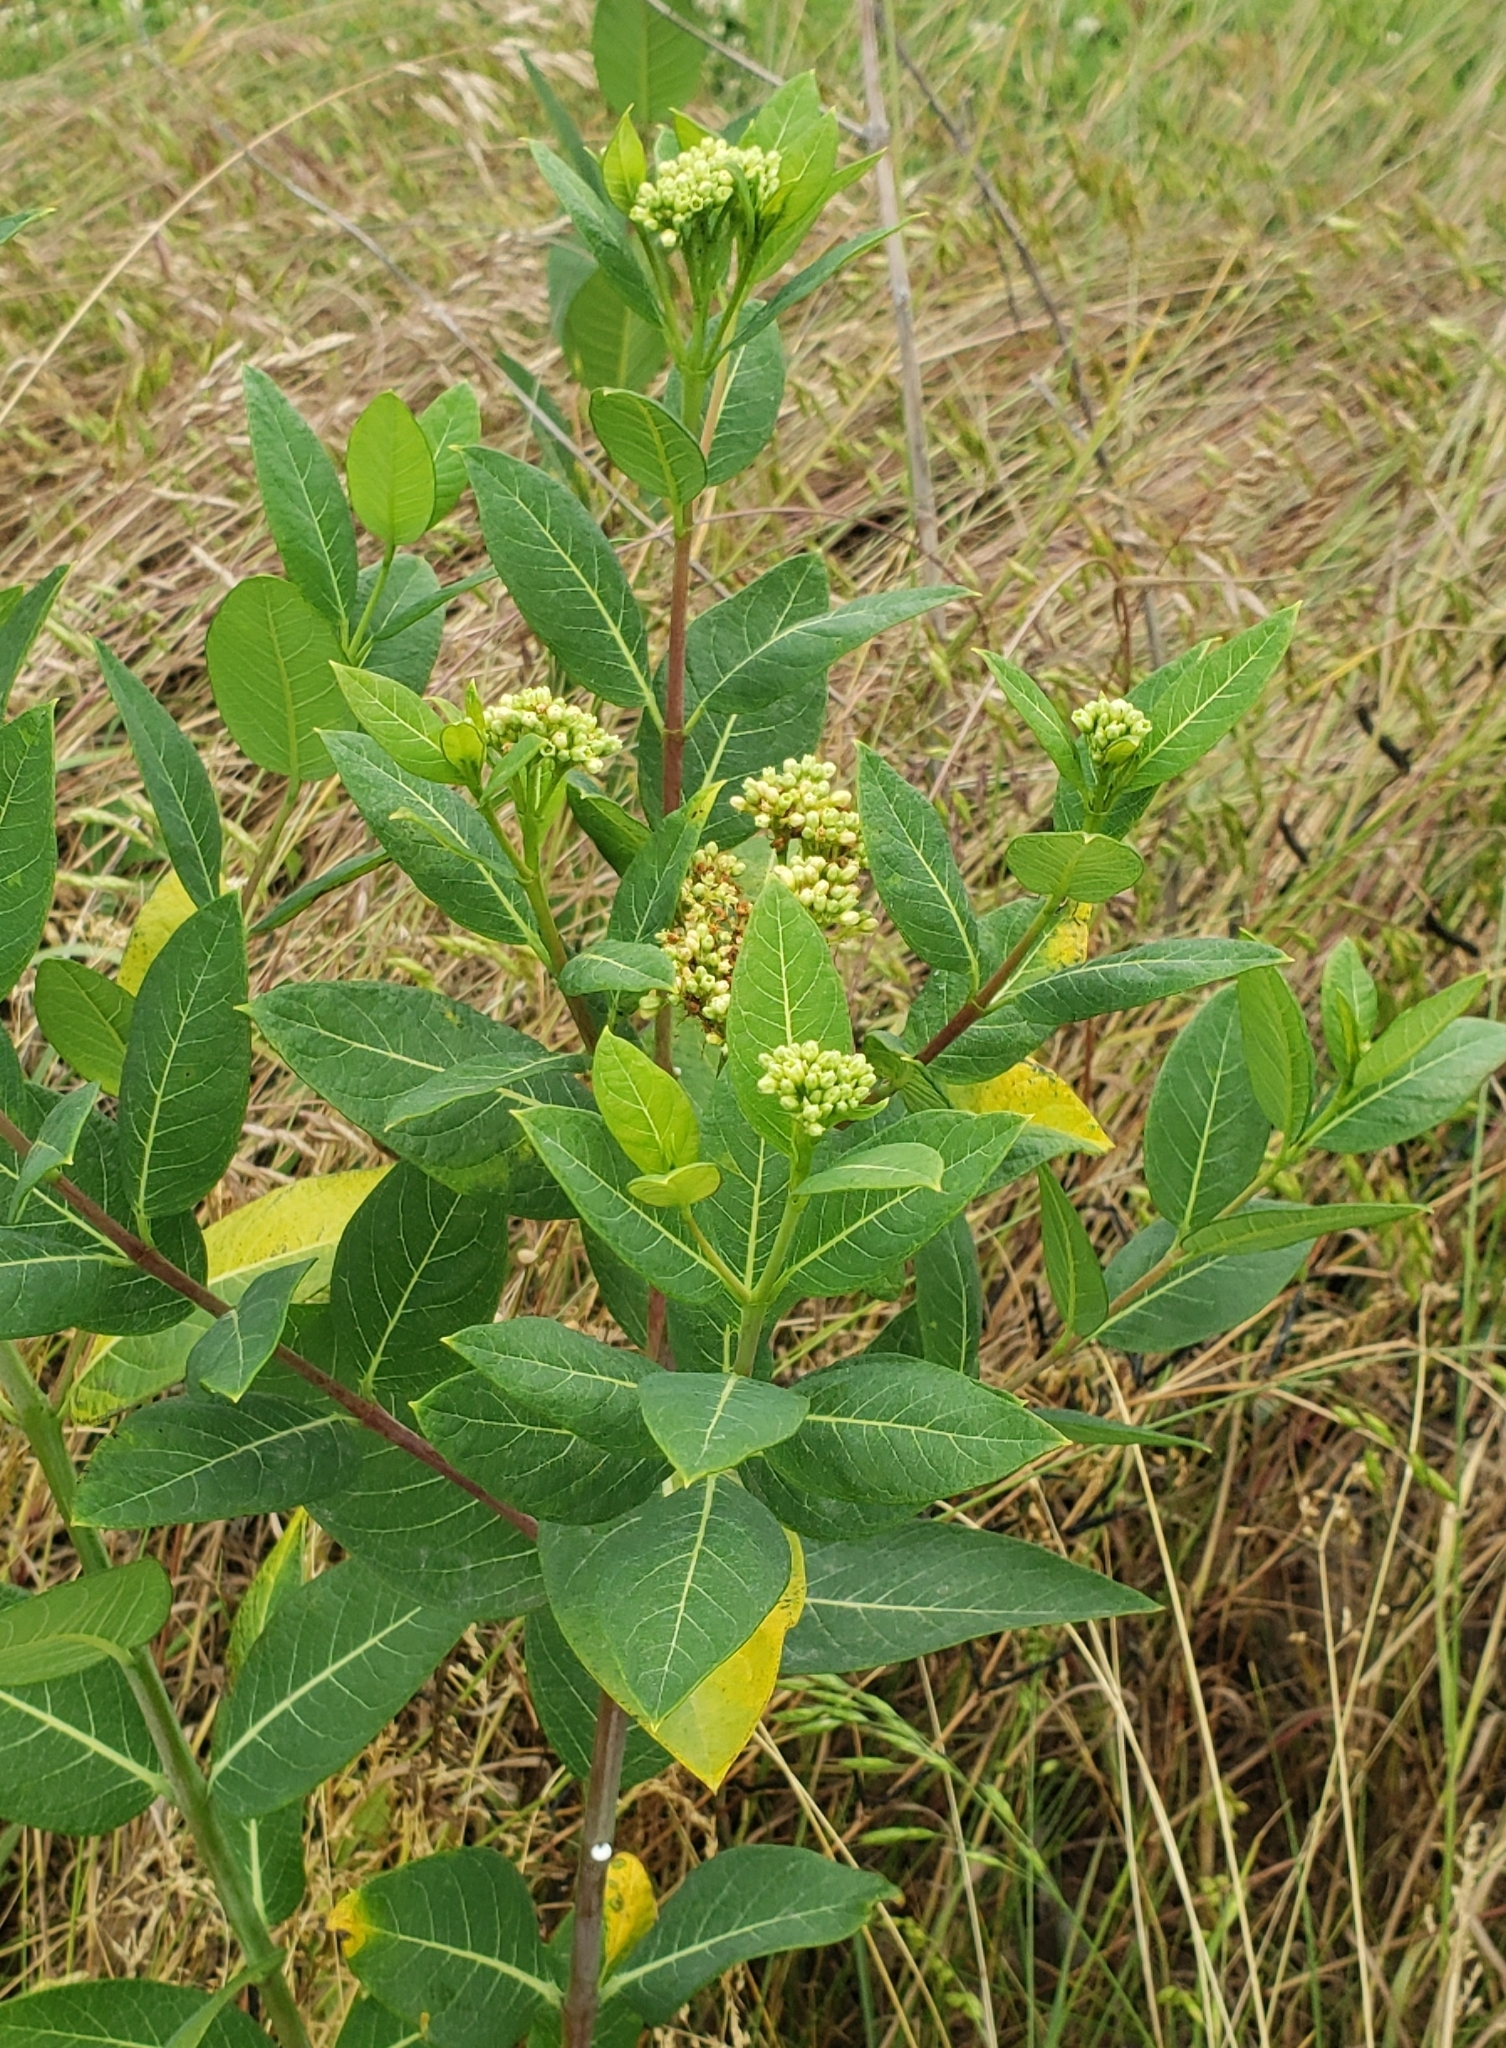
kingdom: Plantae
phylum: Tracheophyta
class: Magnoliopsida
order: Gentianales
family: Apocynaceae
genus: Apocynum
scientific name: Apocynum cannabinum
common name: Hemp dogbane
